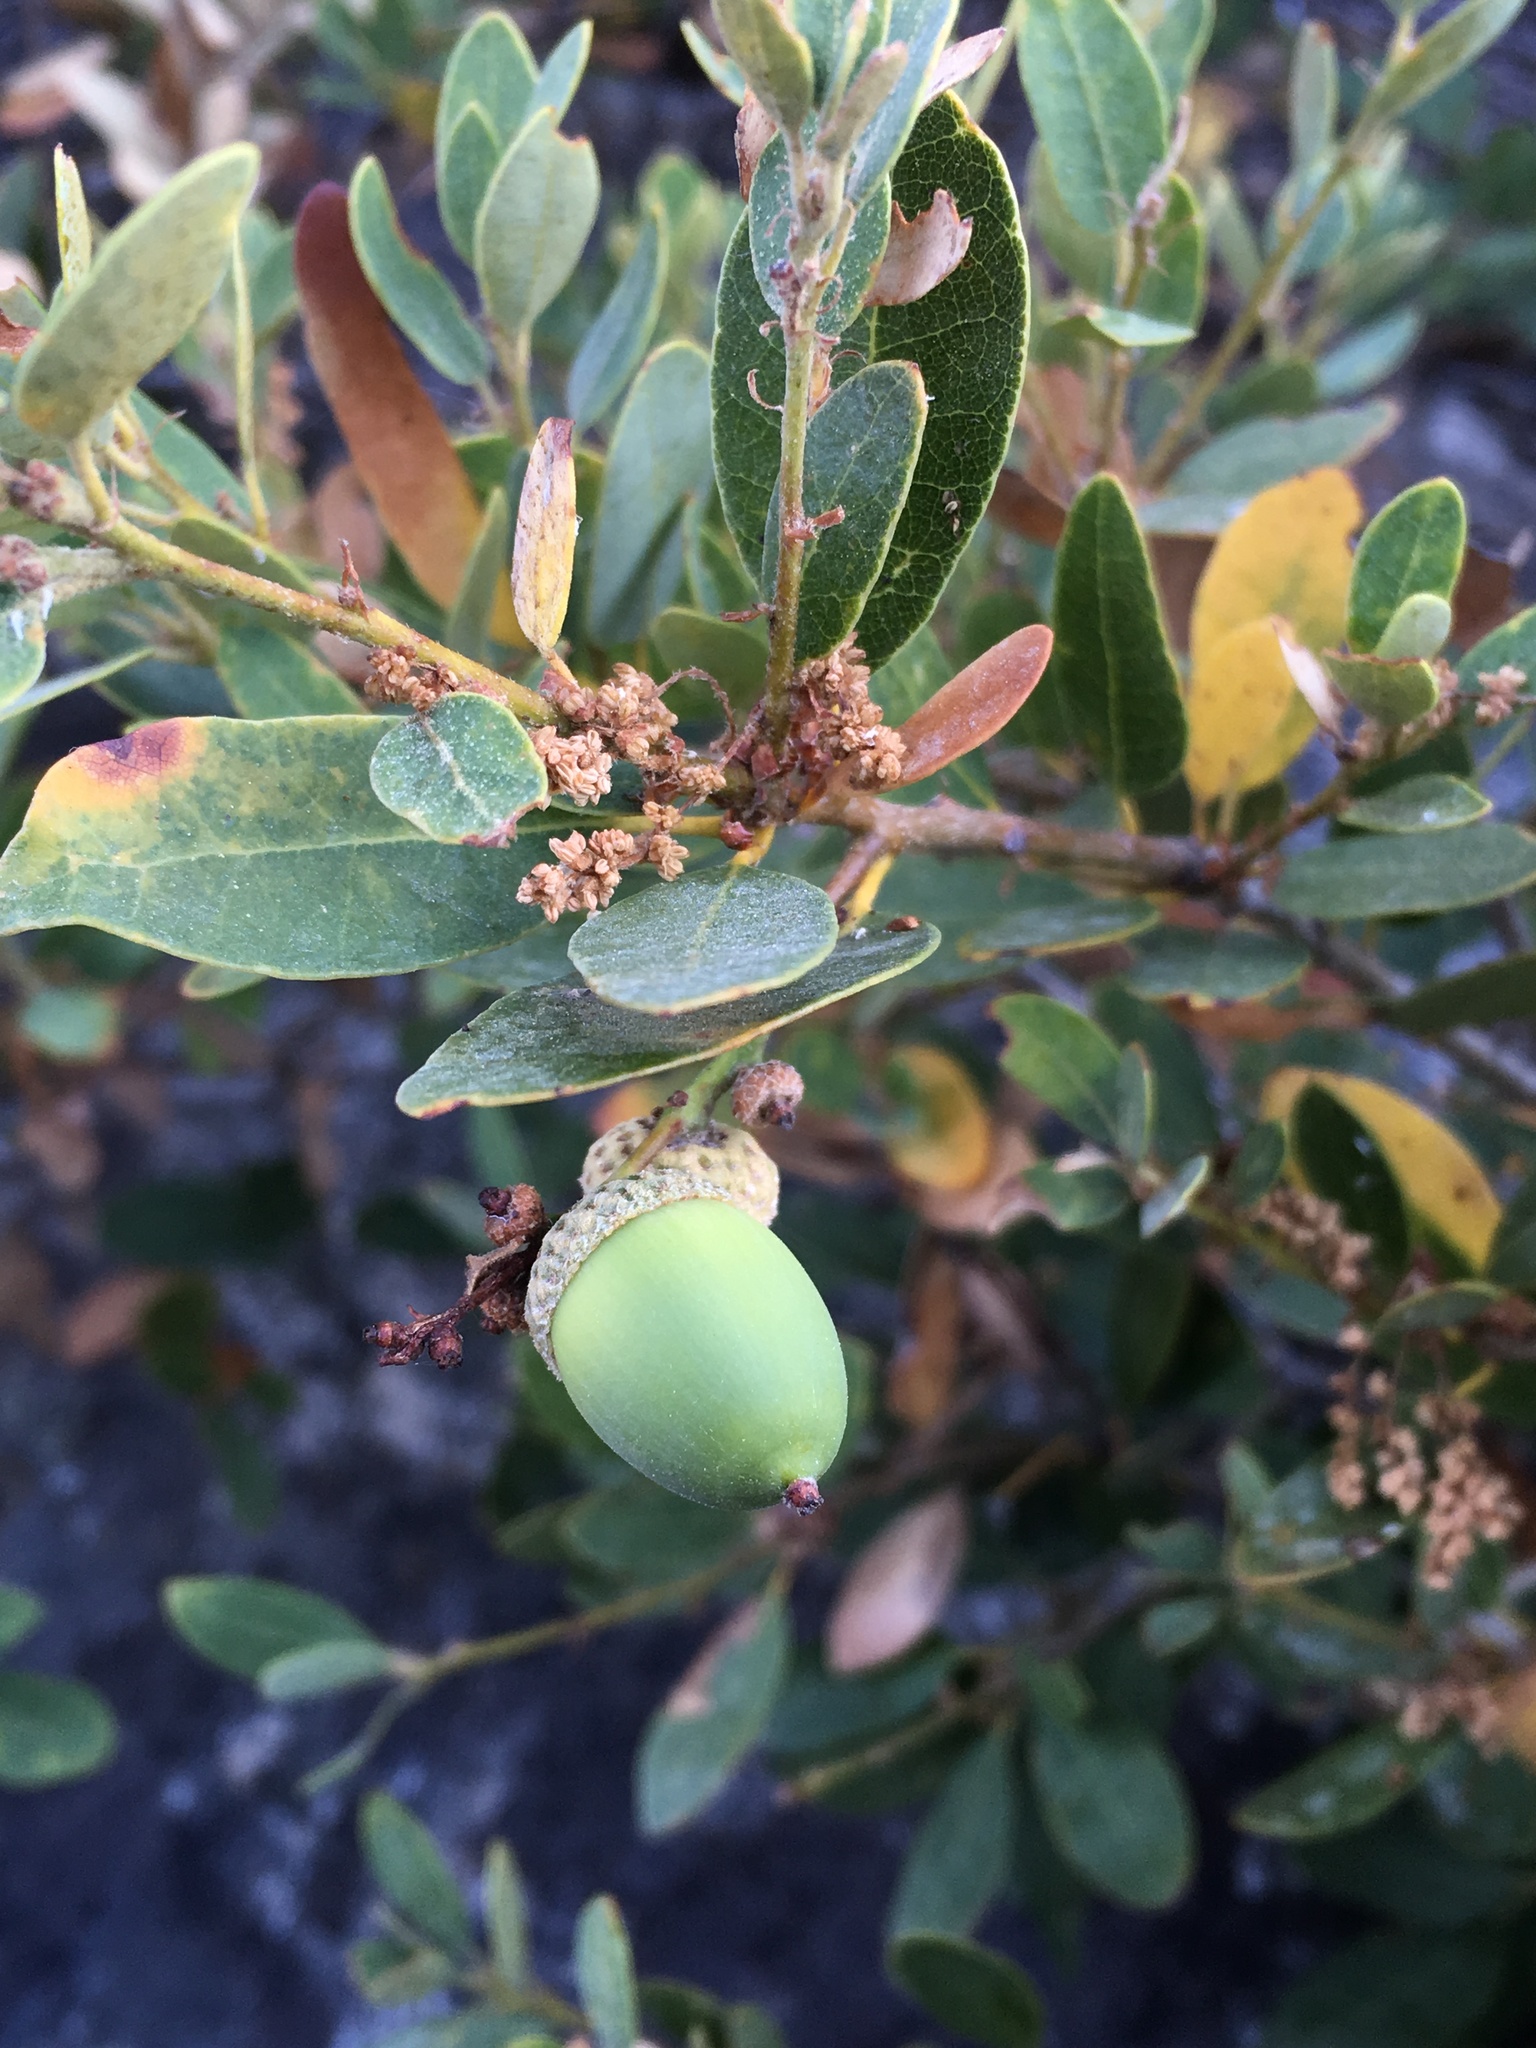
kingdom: Plantae
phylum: Tracheophyta
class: Magnoliopsida
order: Fagales
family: Fagaceae
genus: Quercus
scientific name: Quercus vacciniifolia
